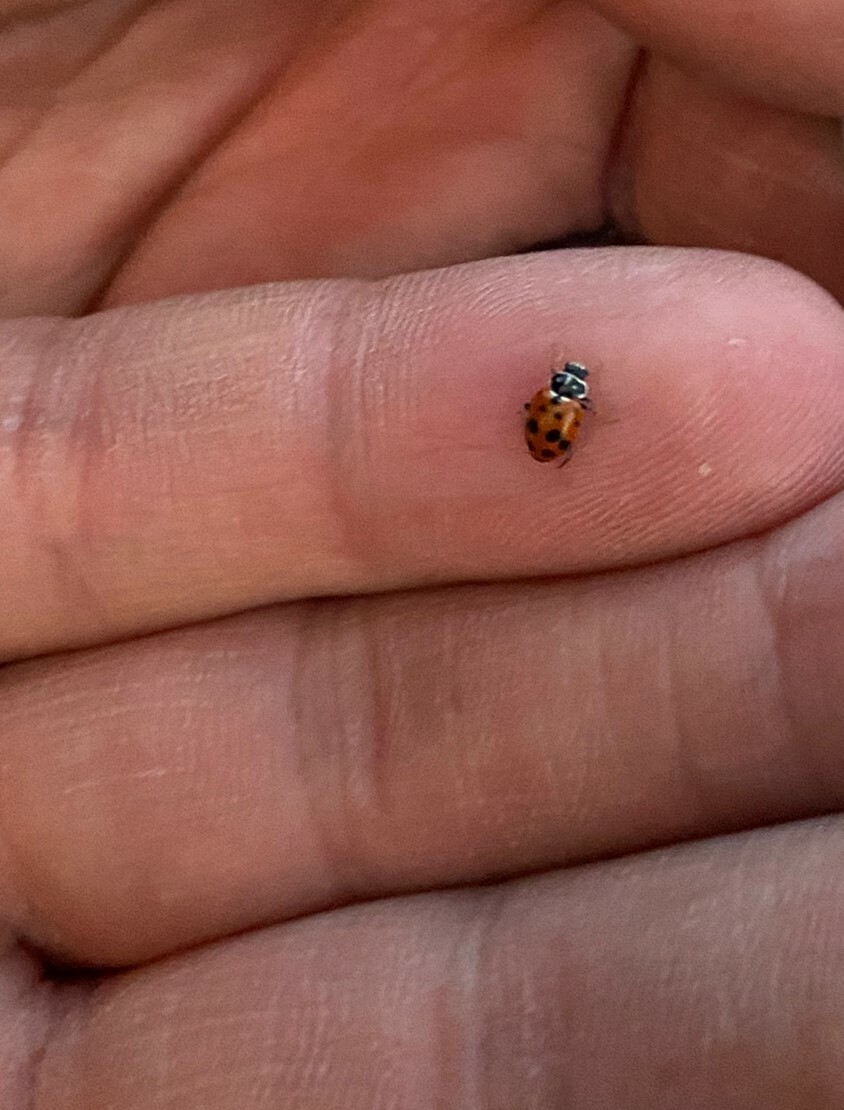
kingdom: Animalia
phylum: Arthropoda
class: Insecta
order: Coleoptera
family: Coccinellidae
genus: Hippodamia
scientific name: Hippodamia variegata
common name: Ladybird beetle
